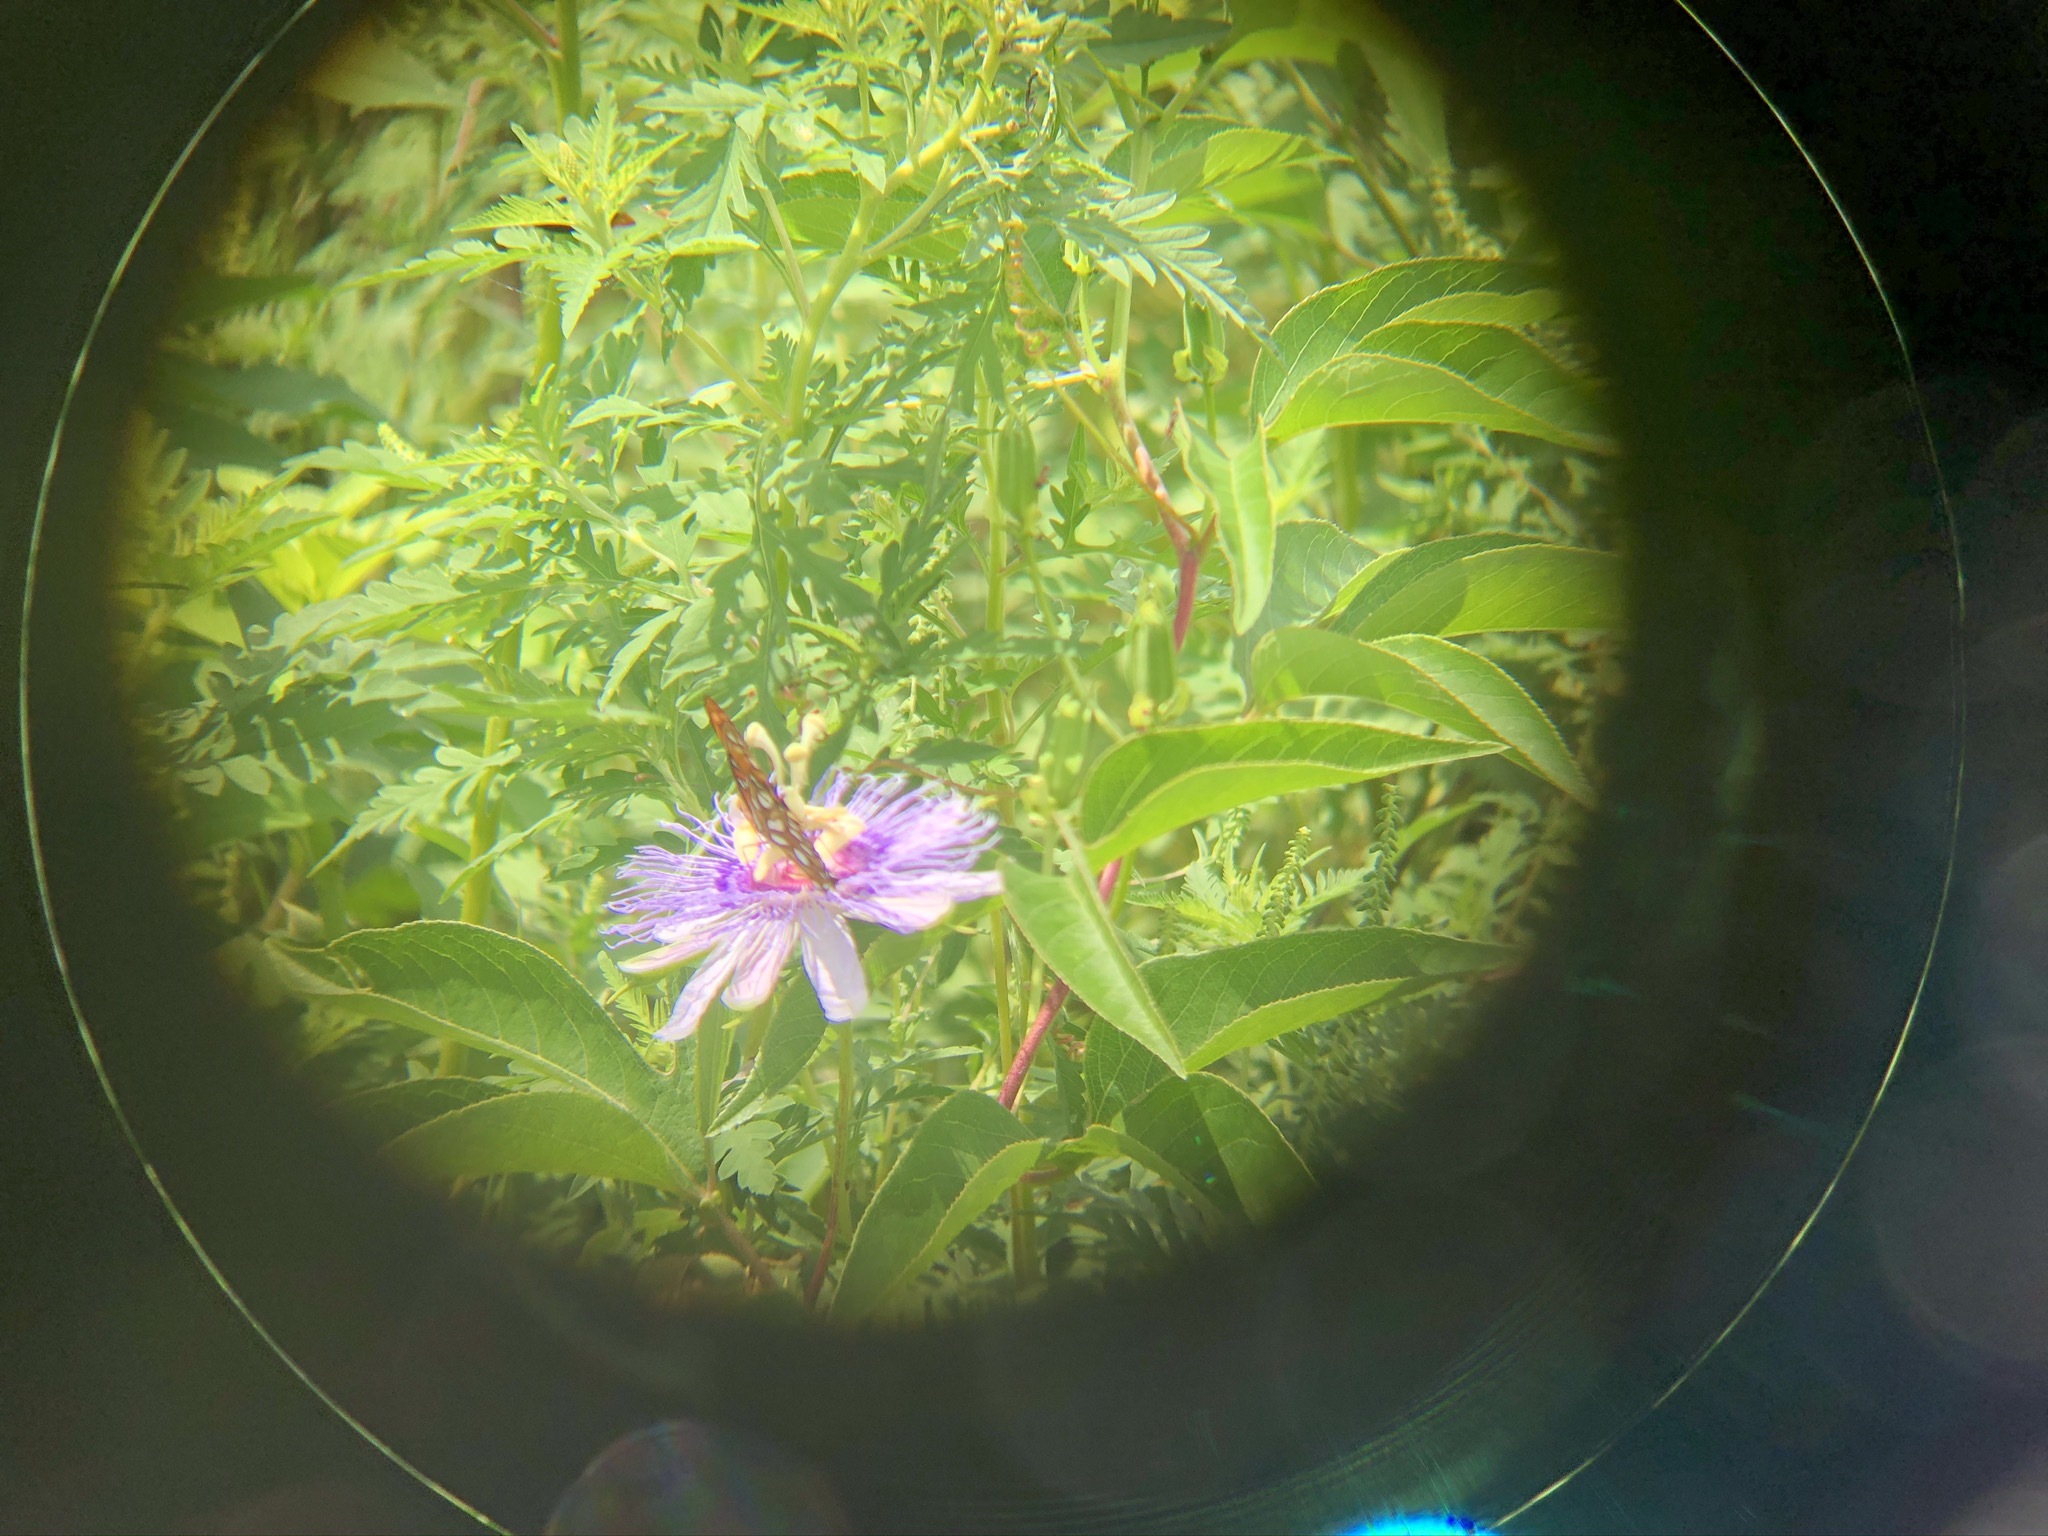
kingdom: Animalia
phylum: Arthropoda
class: Insecta
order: Lepidoptera
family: Nymphalidae
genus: Dione
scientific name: Dione vanillae
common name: Gulf fritillary
